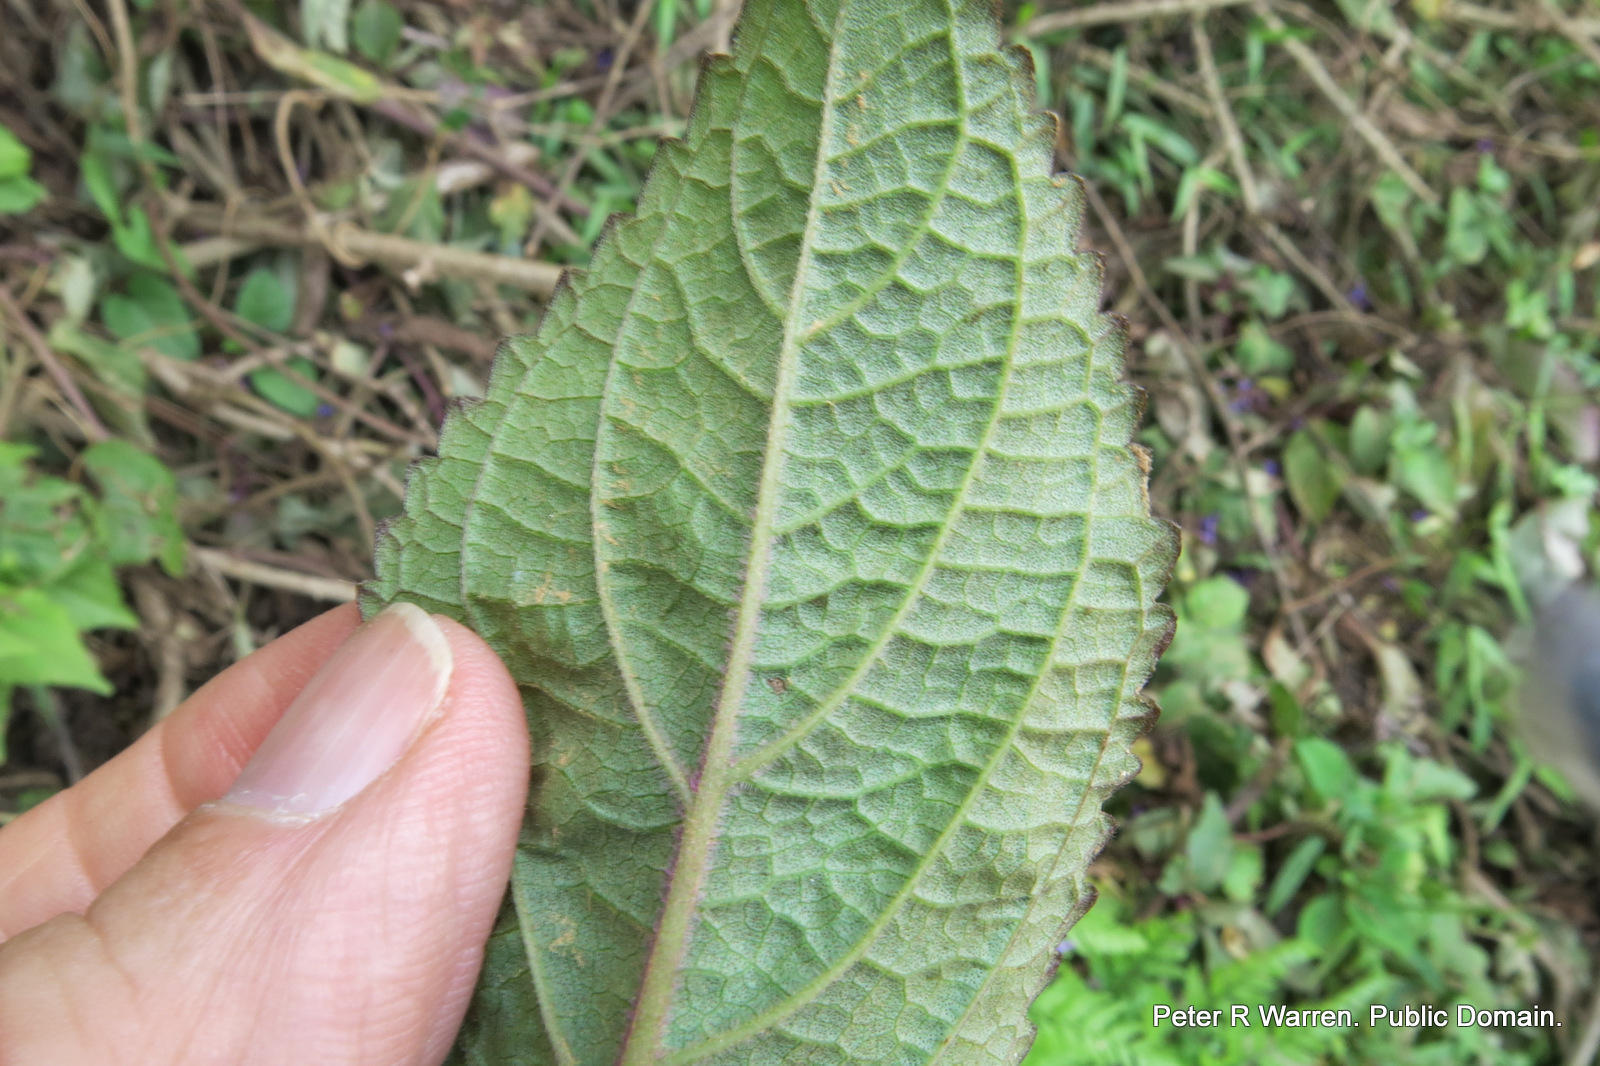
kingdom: Plantae
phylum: Tracheophyta
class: Magnoliopsida
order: Lamiales
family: Lamiaceae
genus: Plectranthus
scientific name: Plectranthus ecklonii
